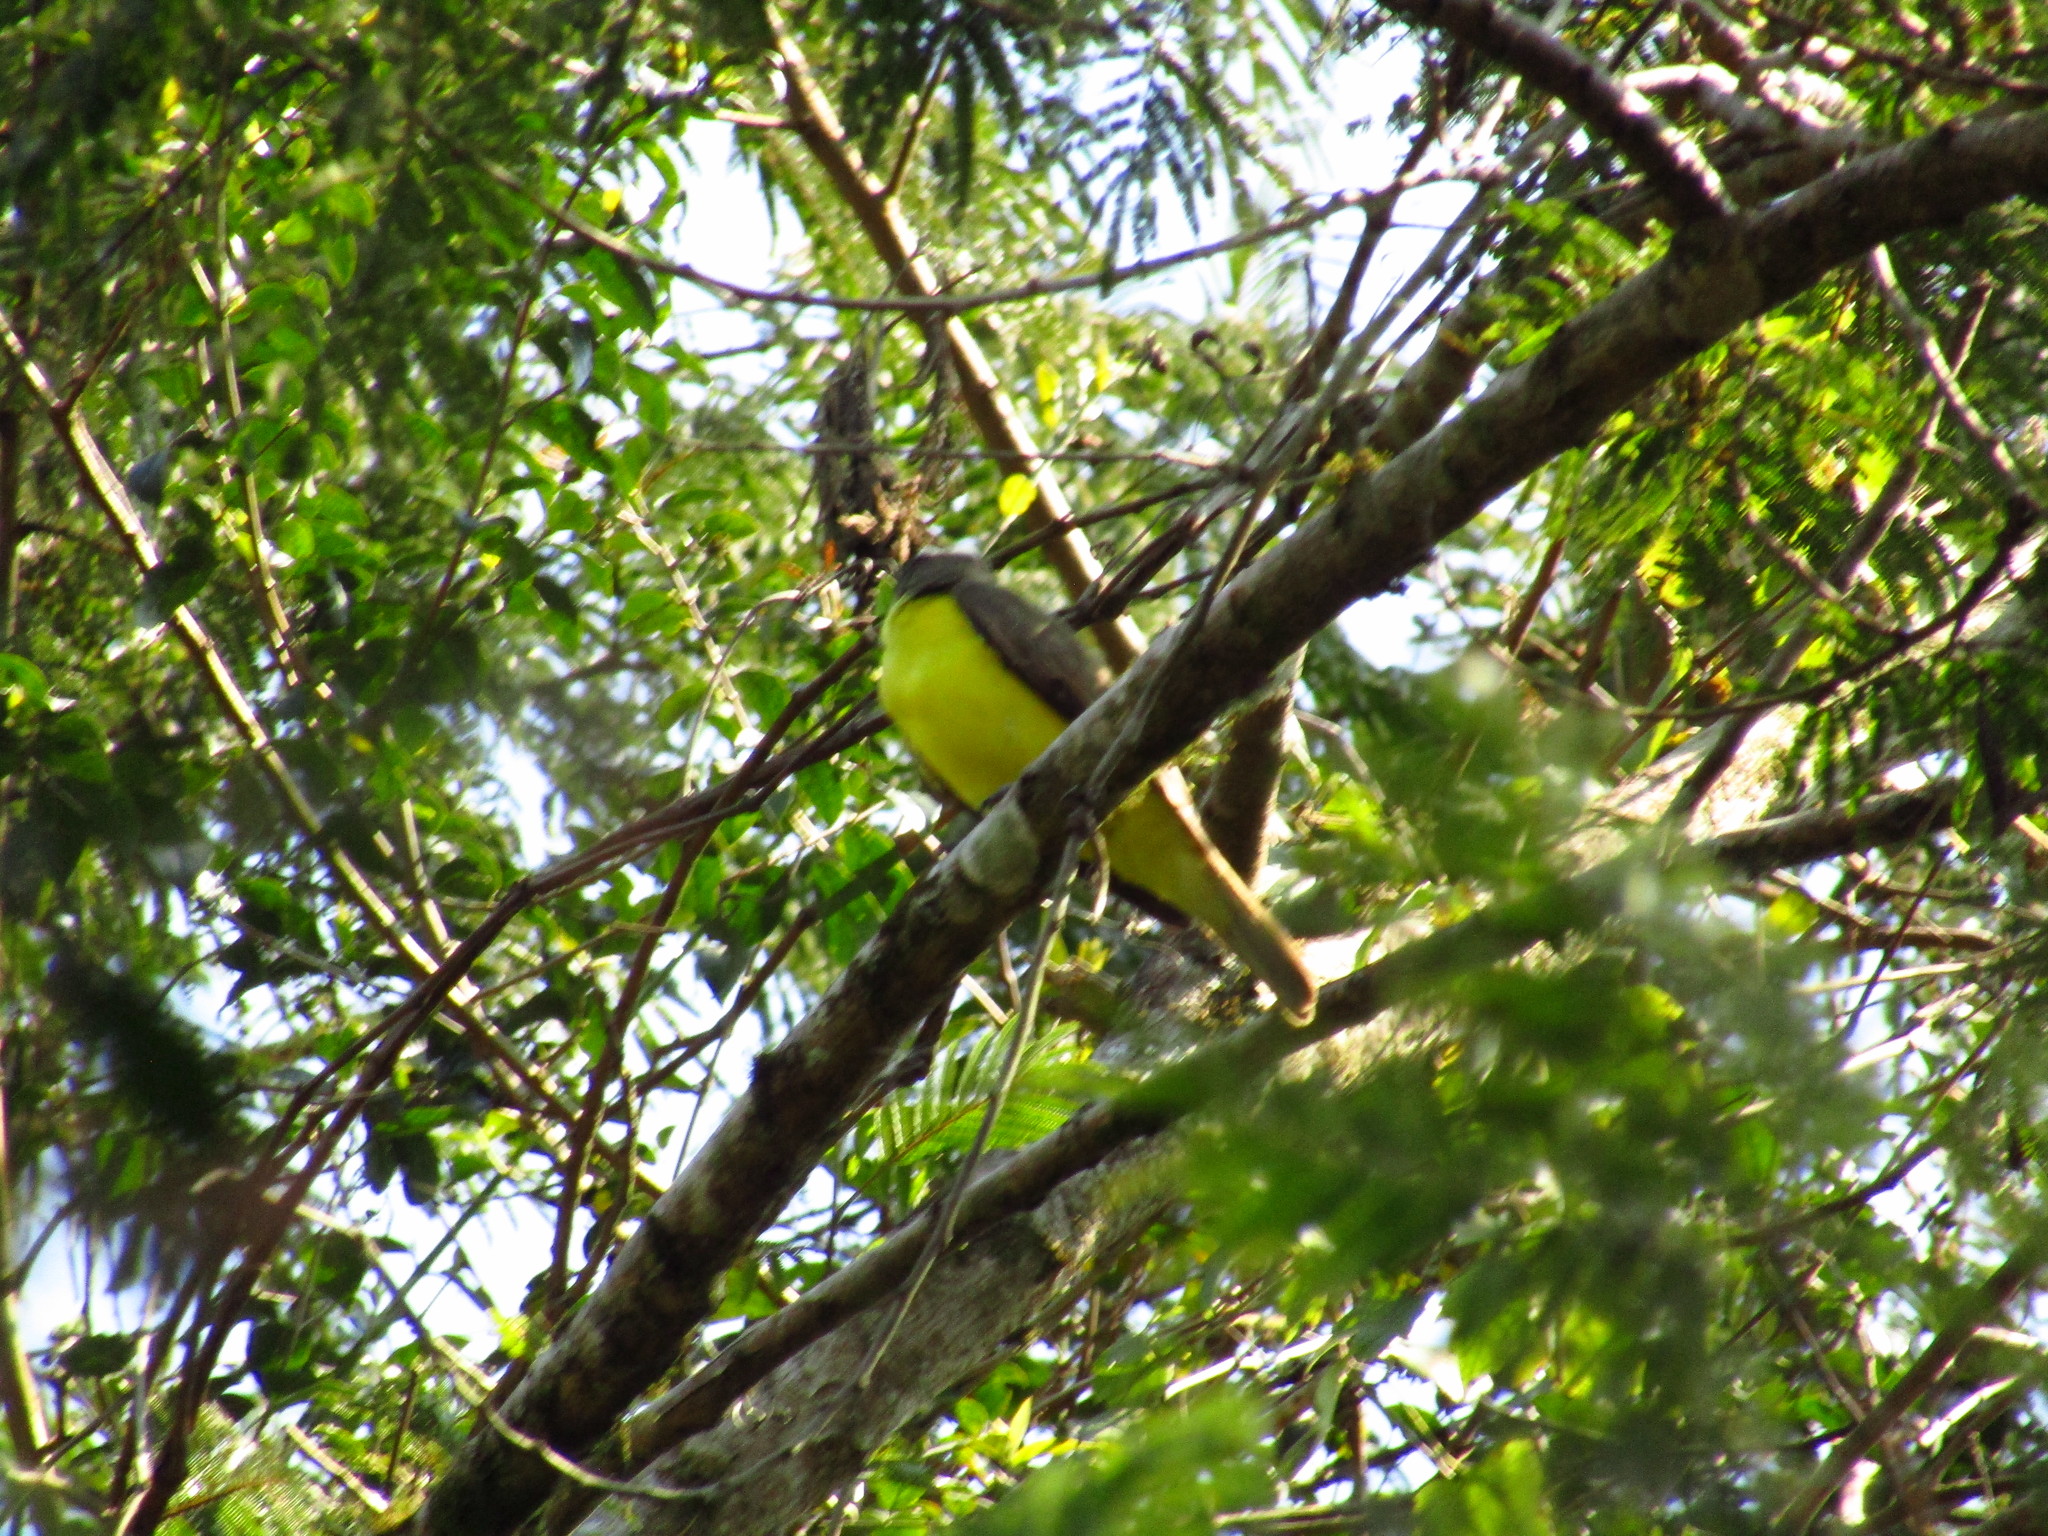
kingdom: Animalia
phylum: Chordata
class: Aves
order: Passeriformes
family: Tyrannidae
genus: Megarynchus
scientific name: Megarynchus pitangua
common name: Boat-billed flycatcher
